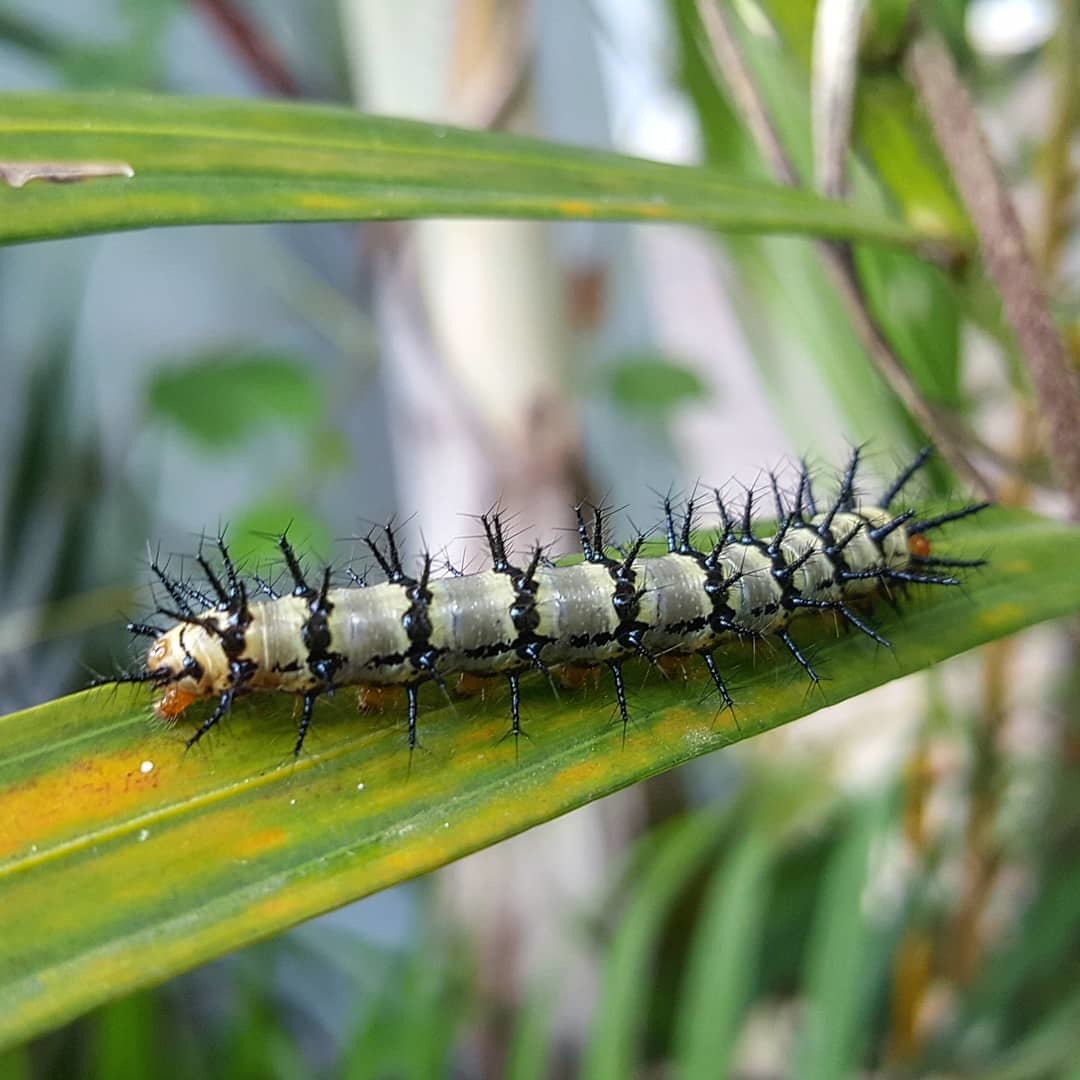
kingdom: Animalia
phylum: Arthropoda
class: Insecta
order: Lepidoptera
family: Nymphalidae
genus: Chlosyne
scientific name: Chlosyne janais
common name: Crimson patch
